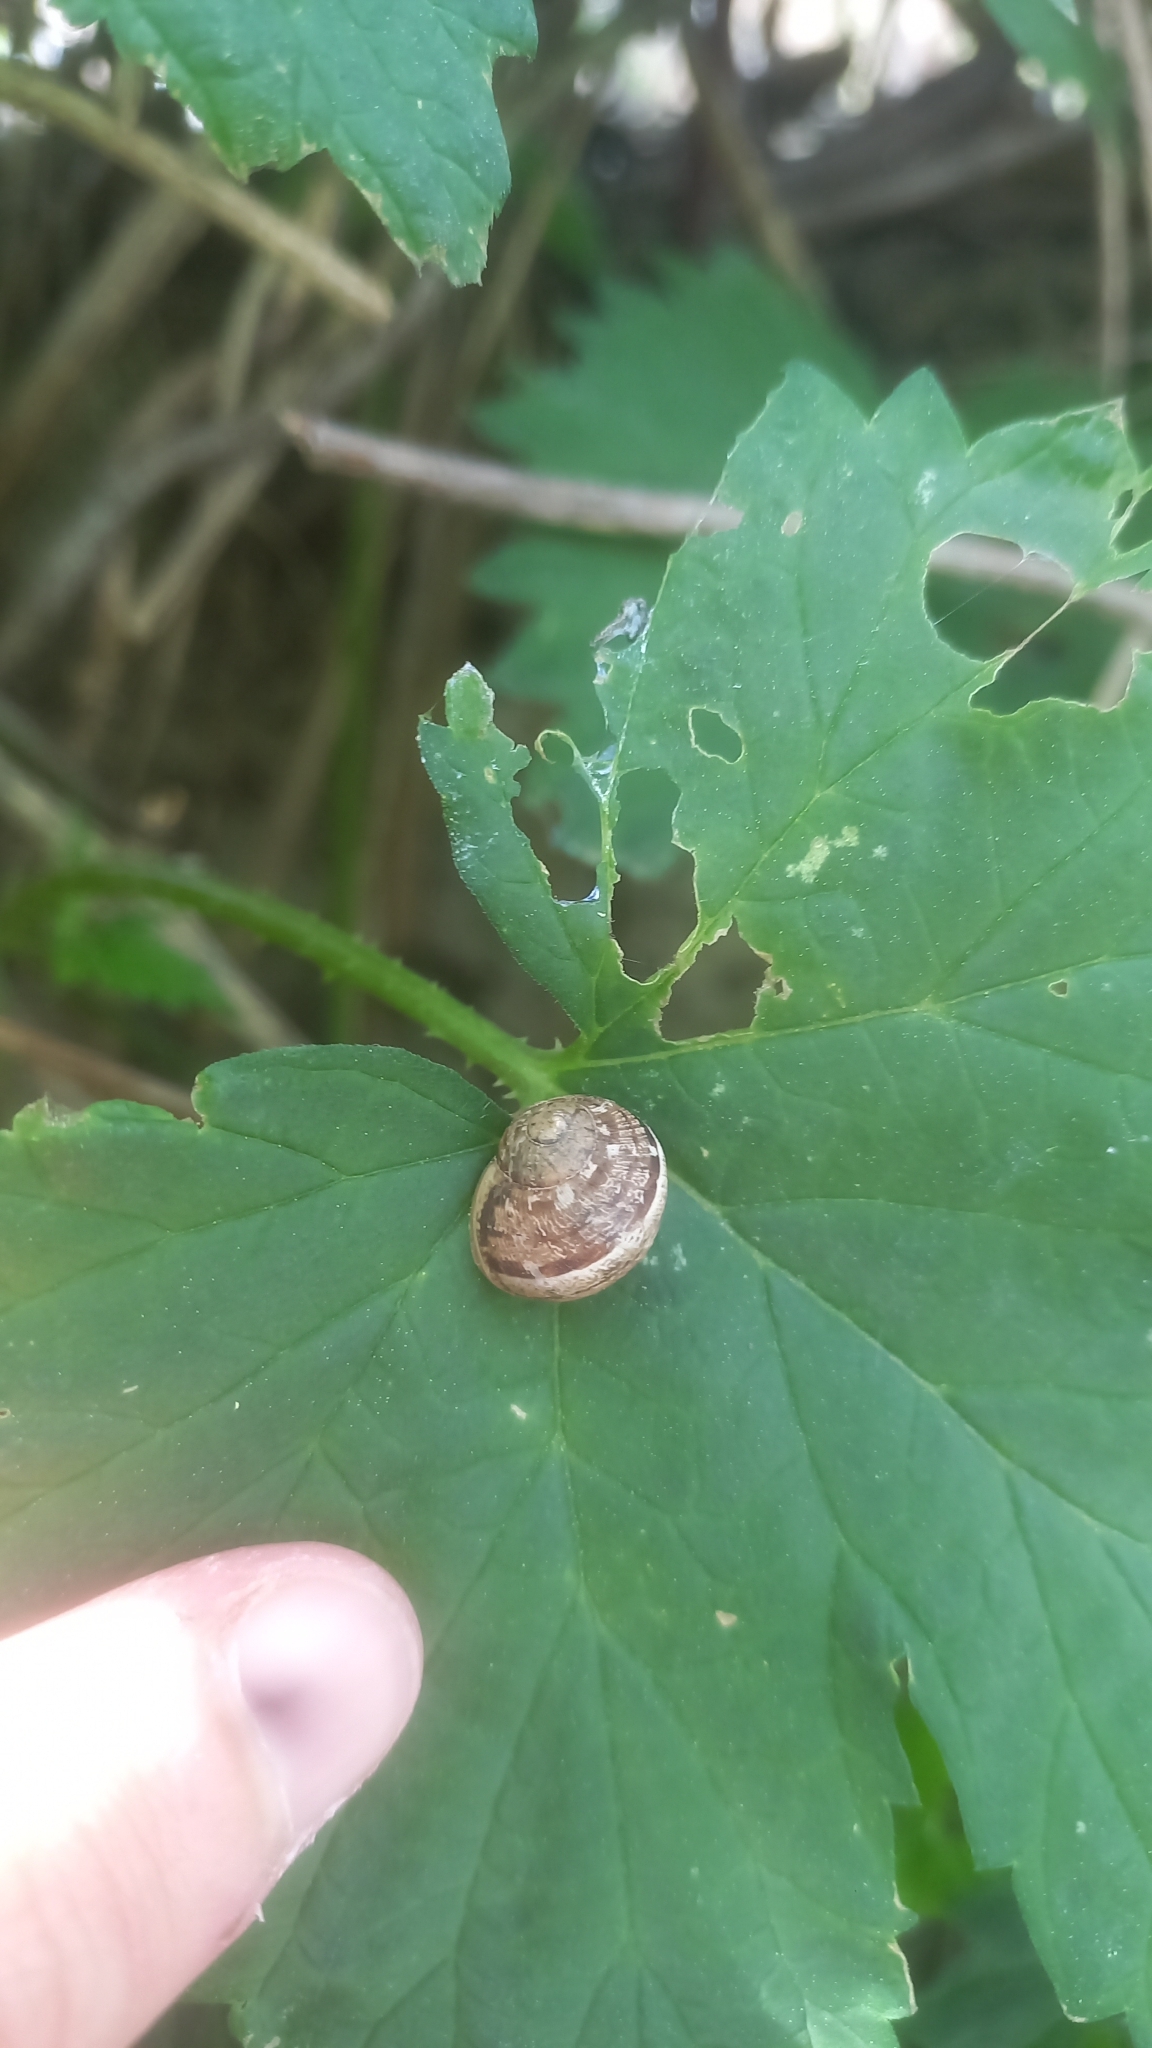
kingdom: Plantae
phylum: Tracheophyta
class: Magnoliopsida
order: Rosales
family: Cannabaceae
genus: Humulus
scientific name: Humulus lupulus
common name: Hop
